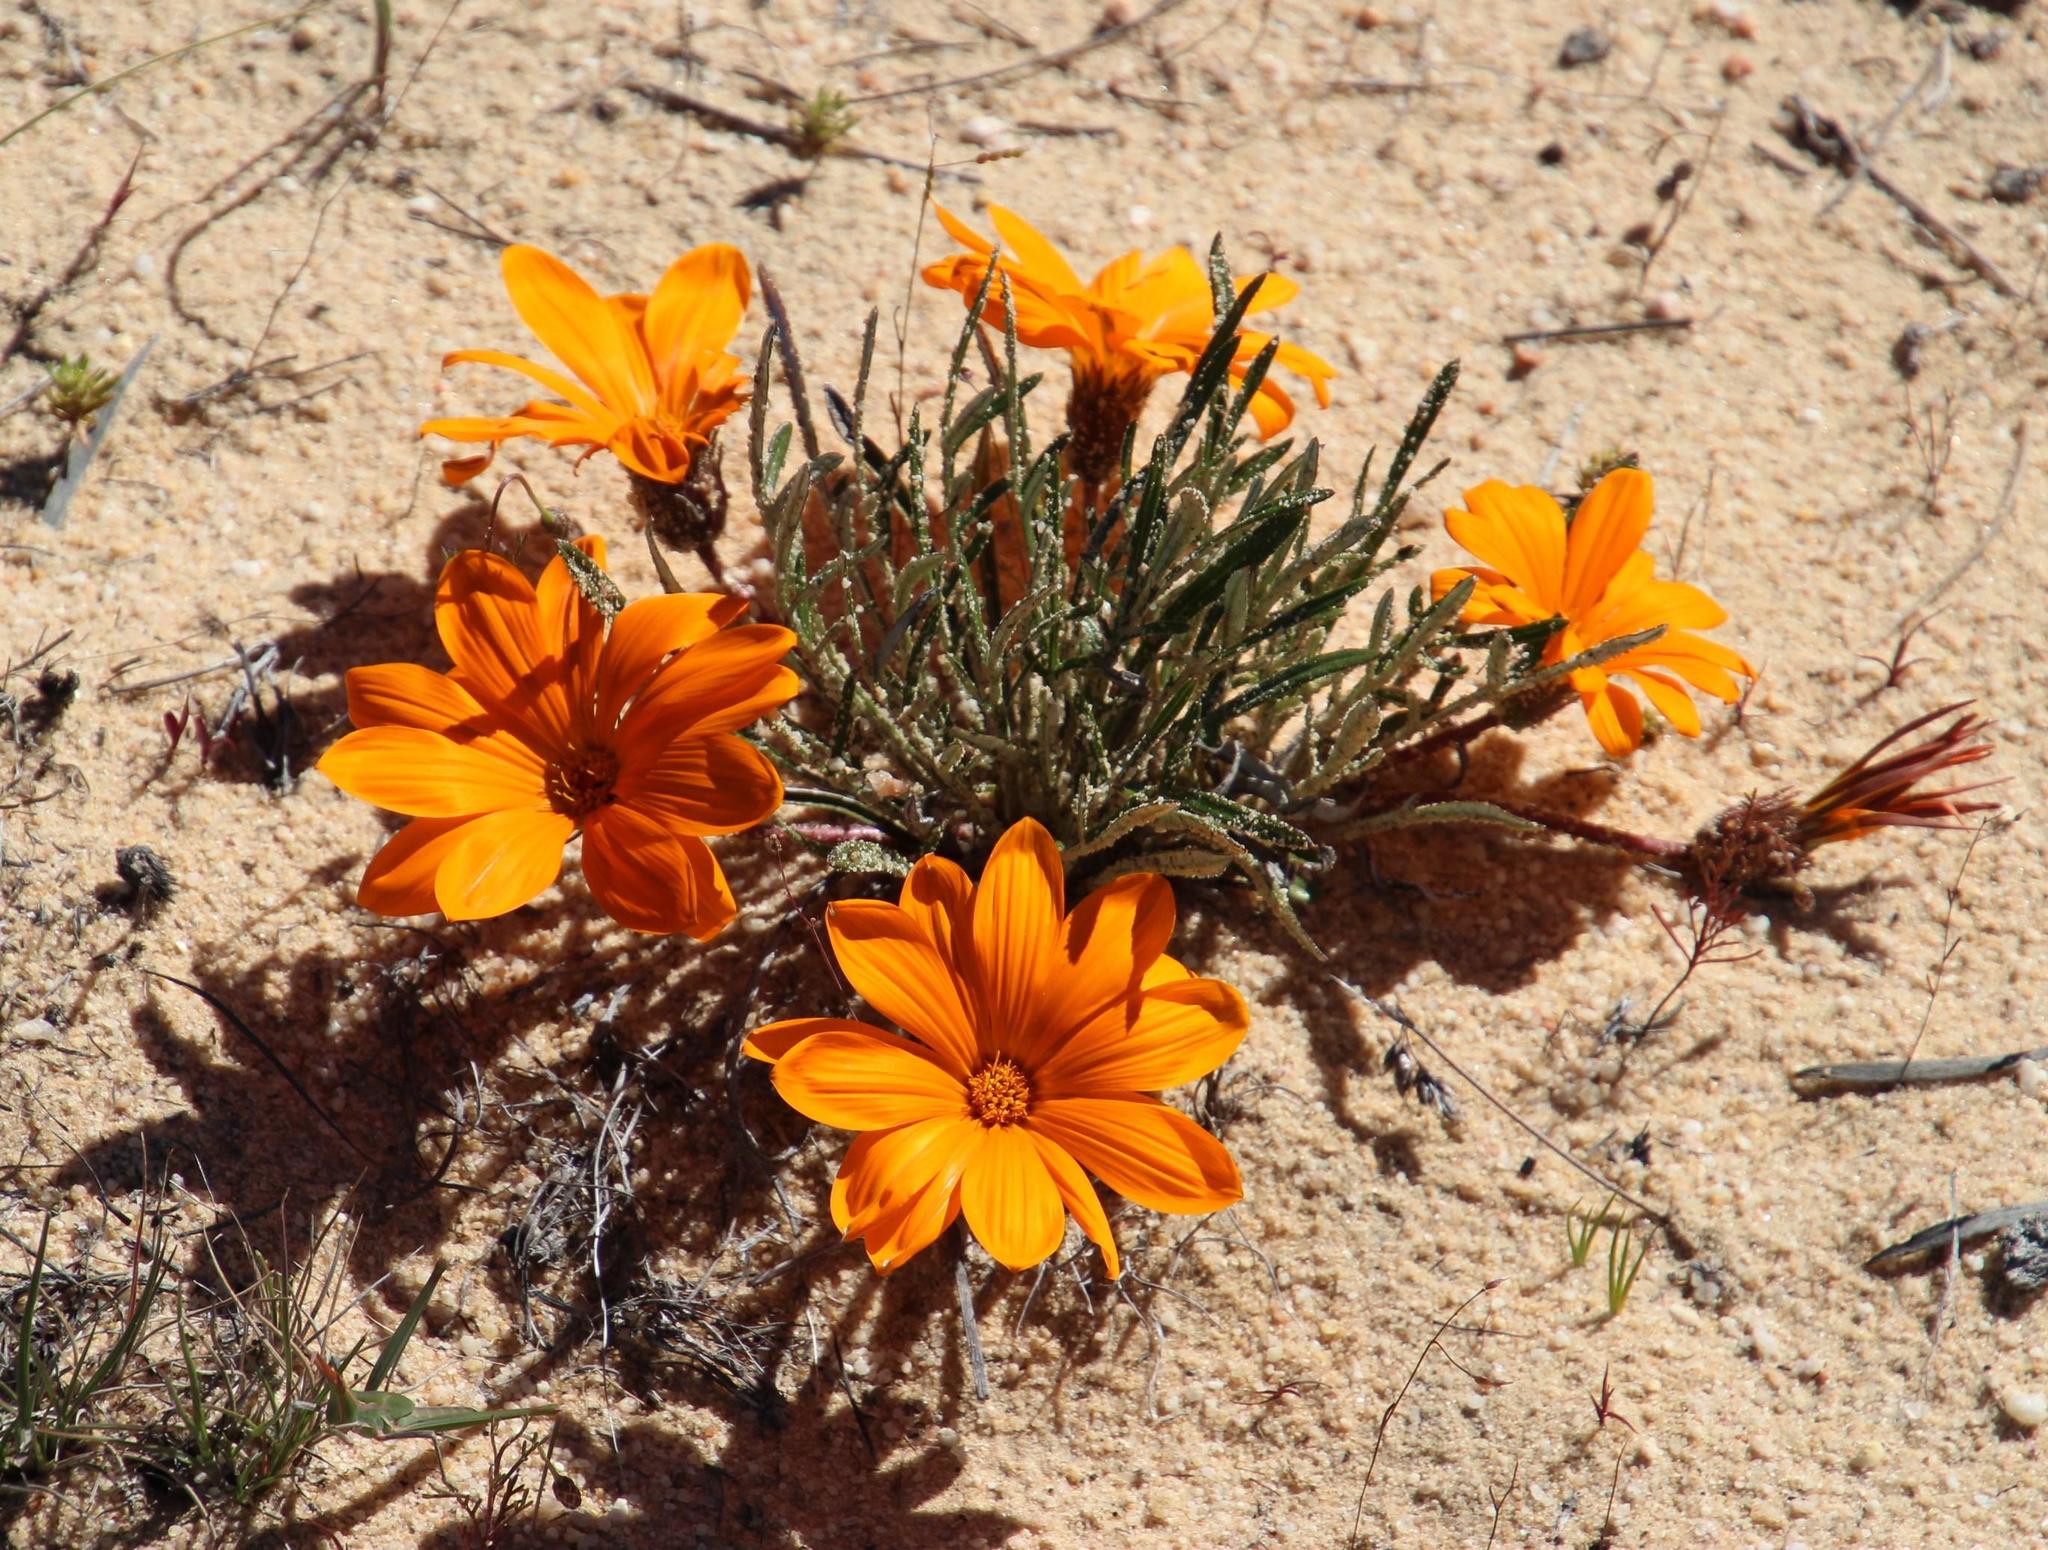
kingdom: Plantae
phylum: Tracheophyta
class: Magnoliopsida
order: Asterales
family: Asteraceae
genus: Gazania
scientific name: Gazania serrata
